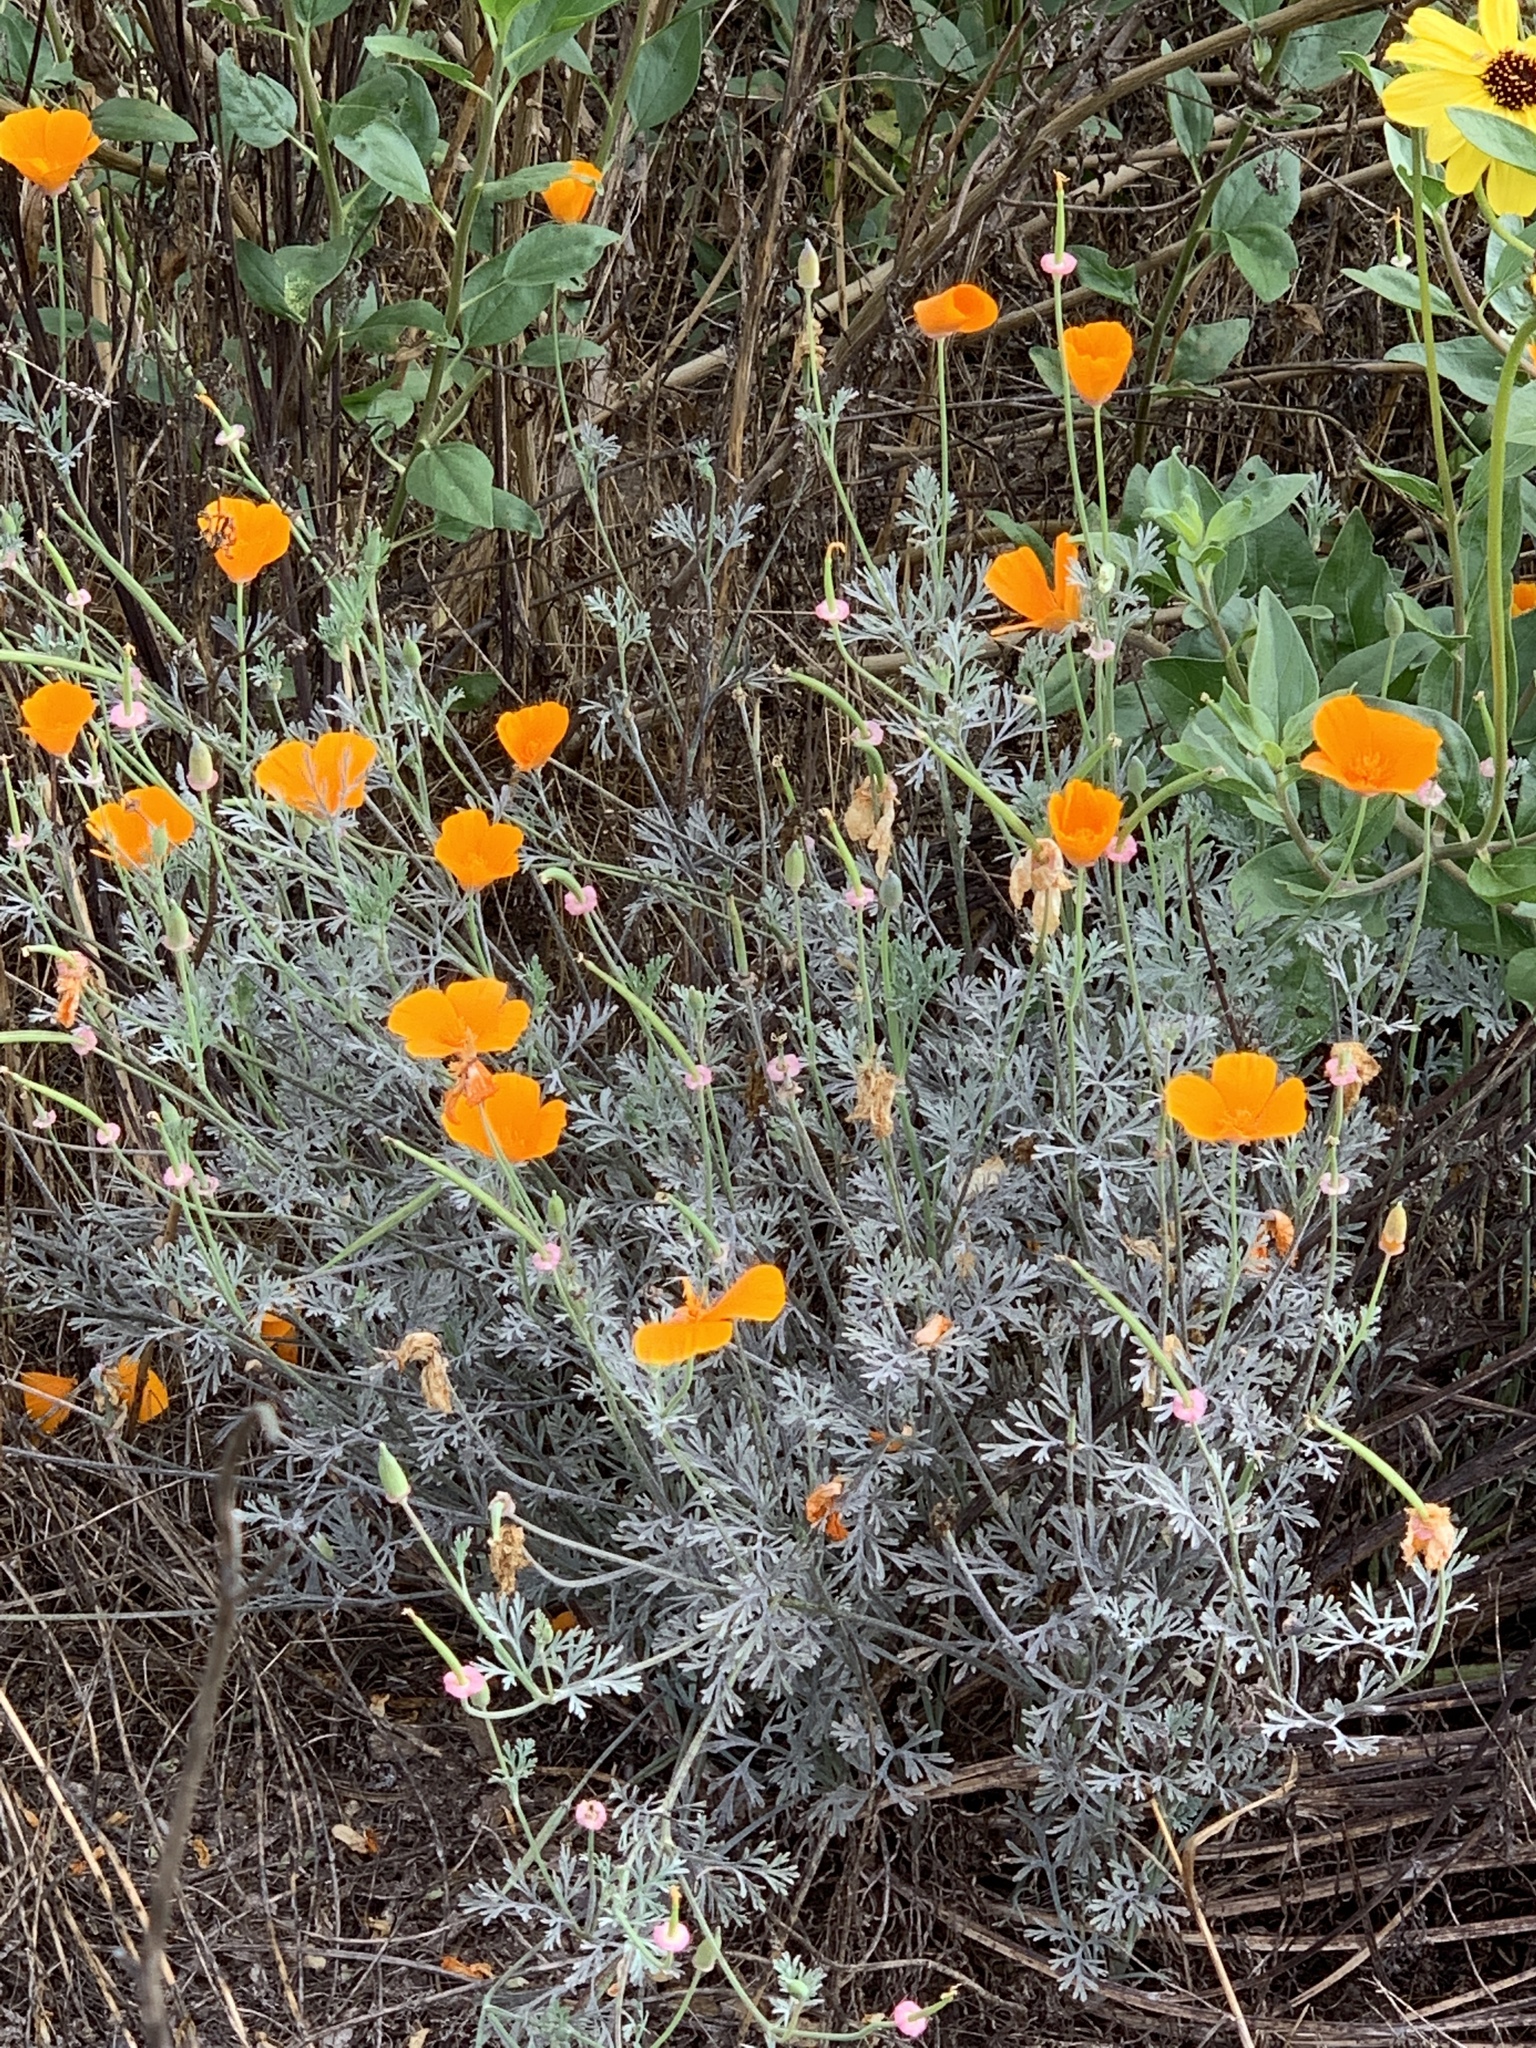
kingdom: Plantae
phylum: Tracheophyta
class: Magnoliopsida
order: Ranunculales
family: Papaveraceae
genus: Eschscholzia
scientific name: Eschscholzia californica
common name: California poppy
